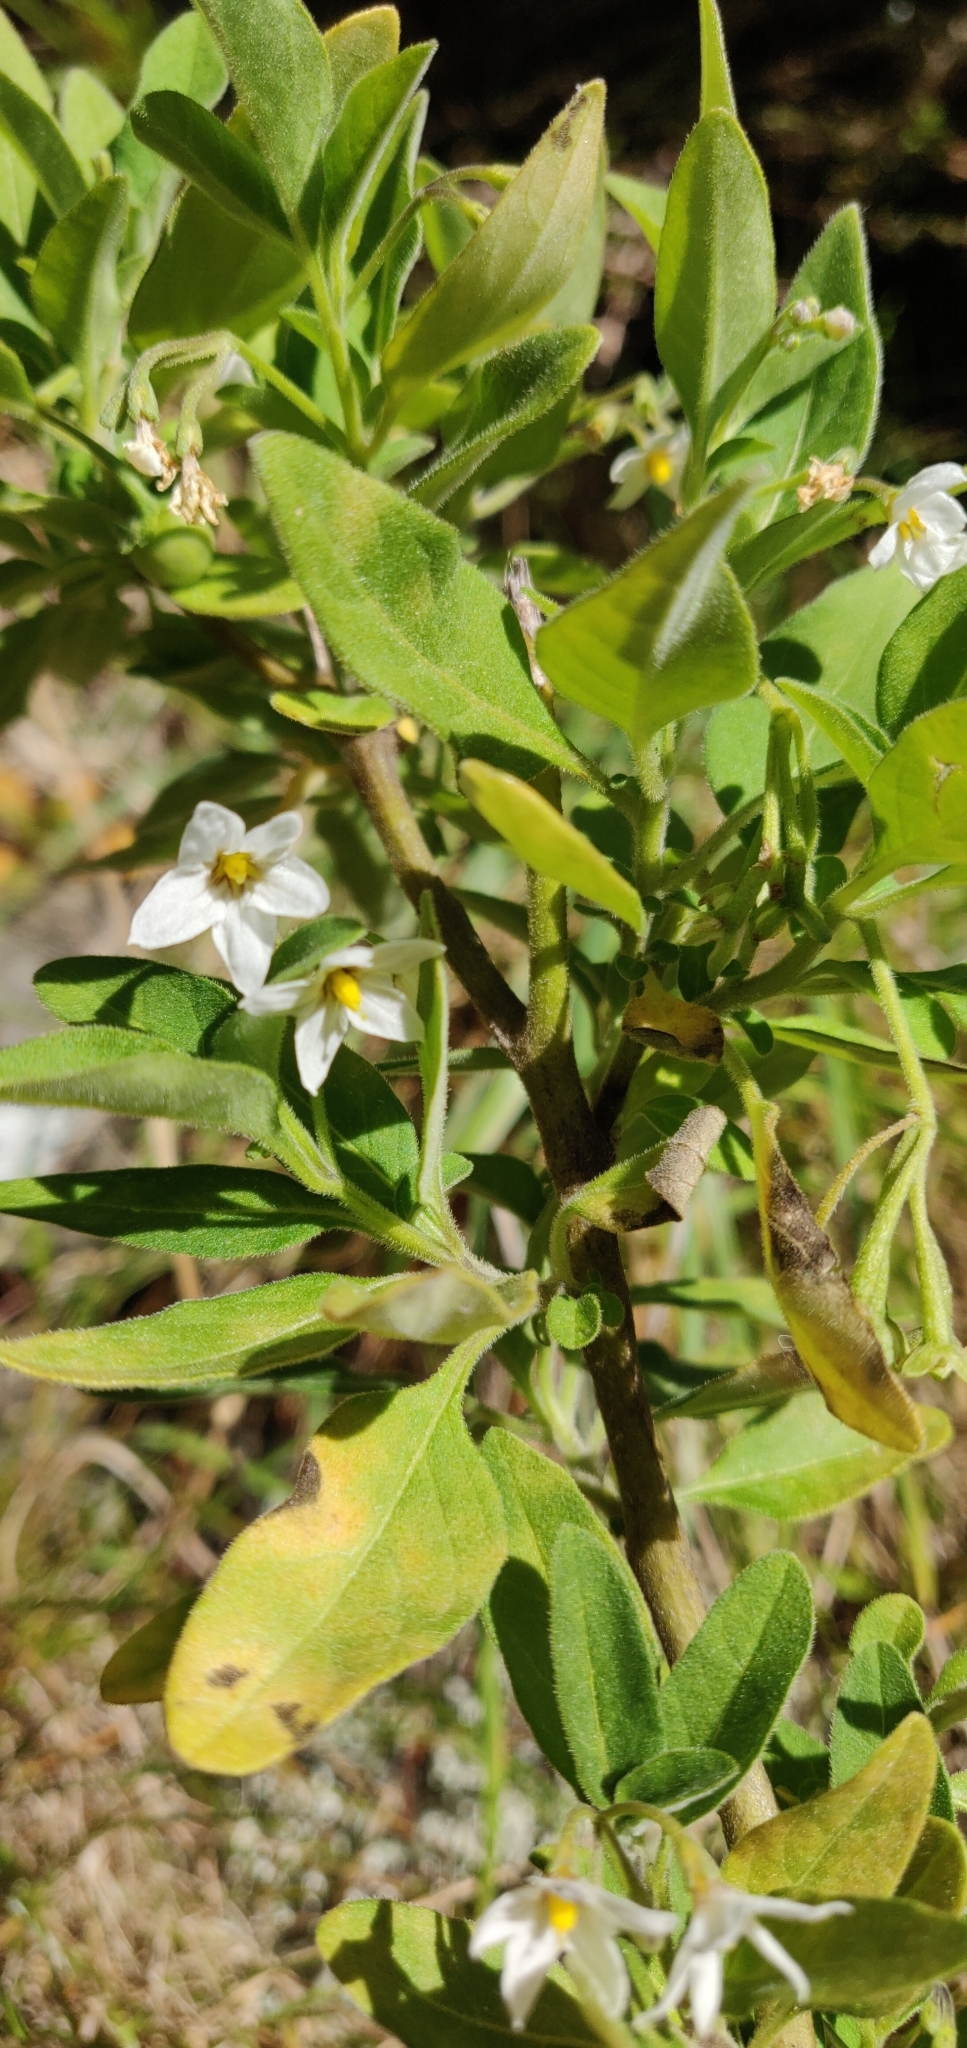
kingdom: Plantae
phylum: Tracheophyta
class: Magnoliopsida
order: Solanales
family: Solanaceae
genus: Solanum
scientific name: Solanum chenopodioides
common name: Tall nightshade
